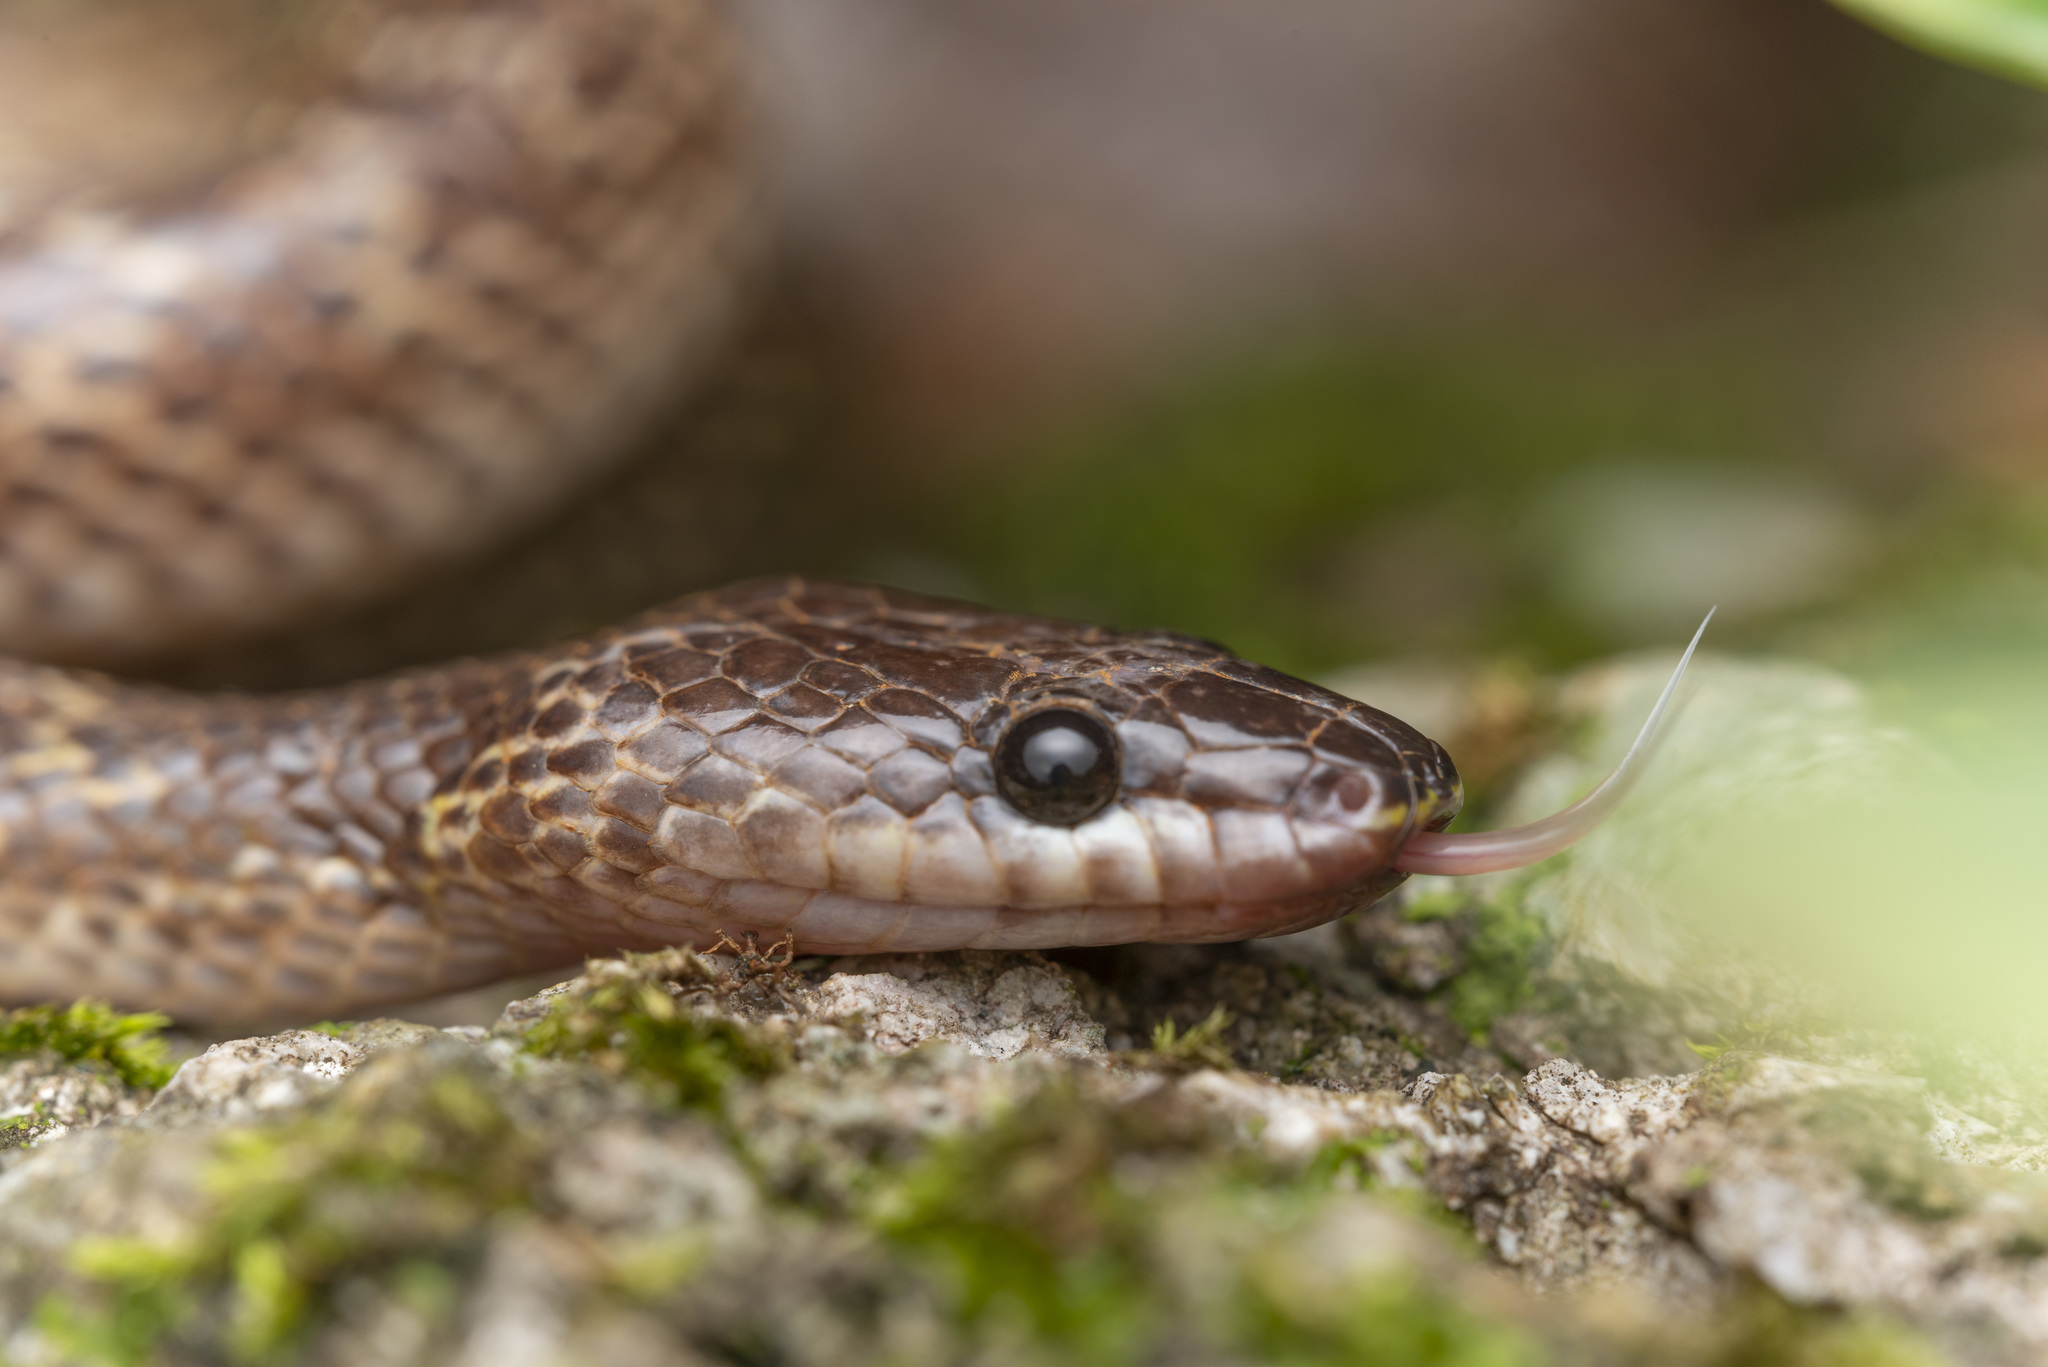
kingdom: Animalia
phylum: Chordata
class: Squamata
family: Colubridae
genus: Lycodon
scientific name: Lycodon capucinus
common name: Common wold snake/house snake
